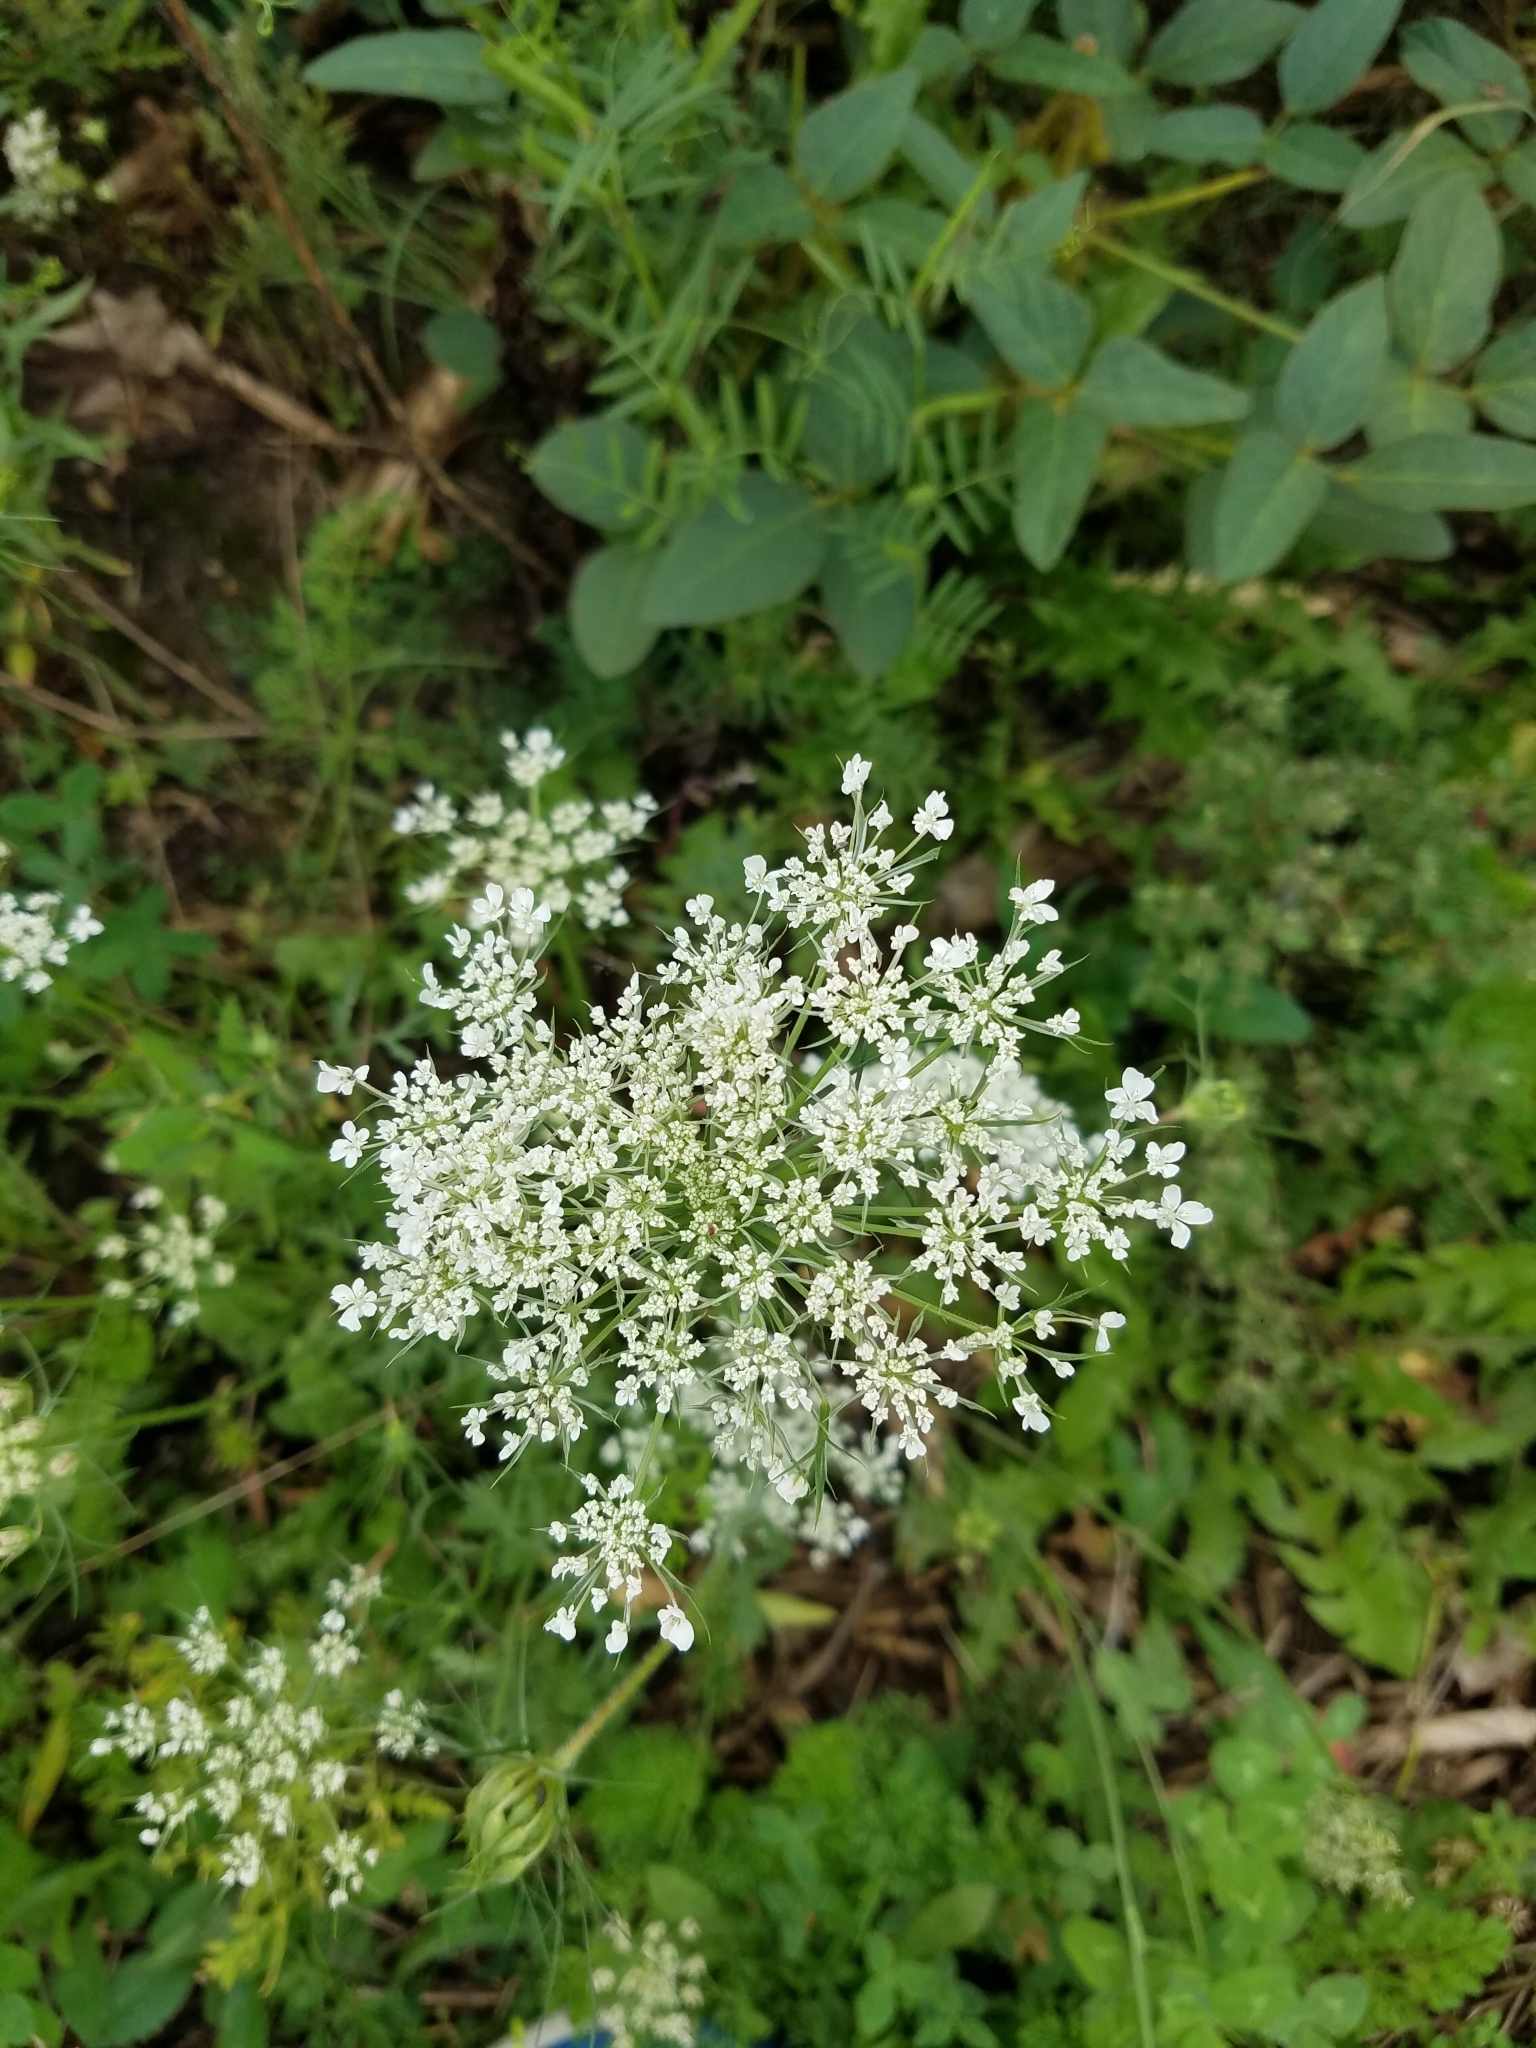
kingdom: Plantae
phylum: Tracheophyta
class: Magnoliopsida
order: Apiales
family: Apiaceae
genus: Daucus
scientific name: Daucus carota
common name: Wild carrot
